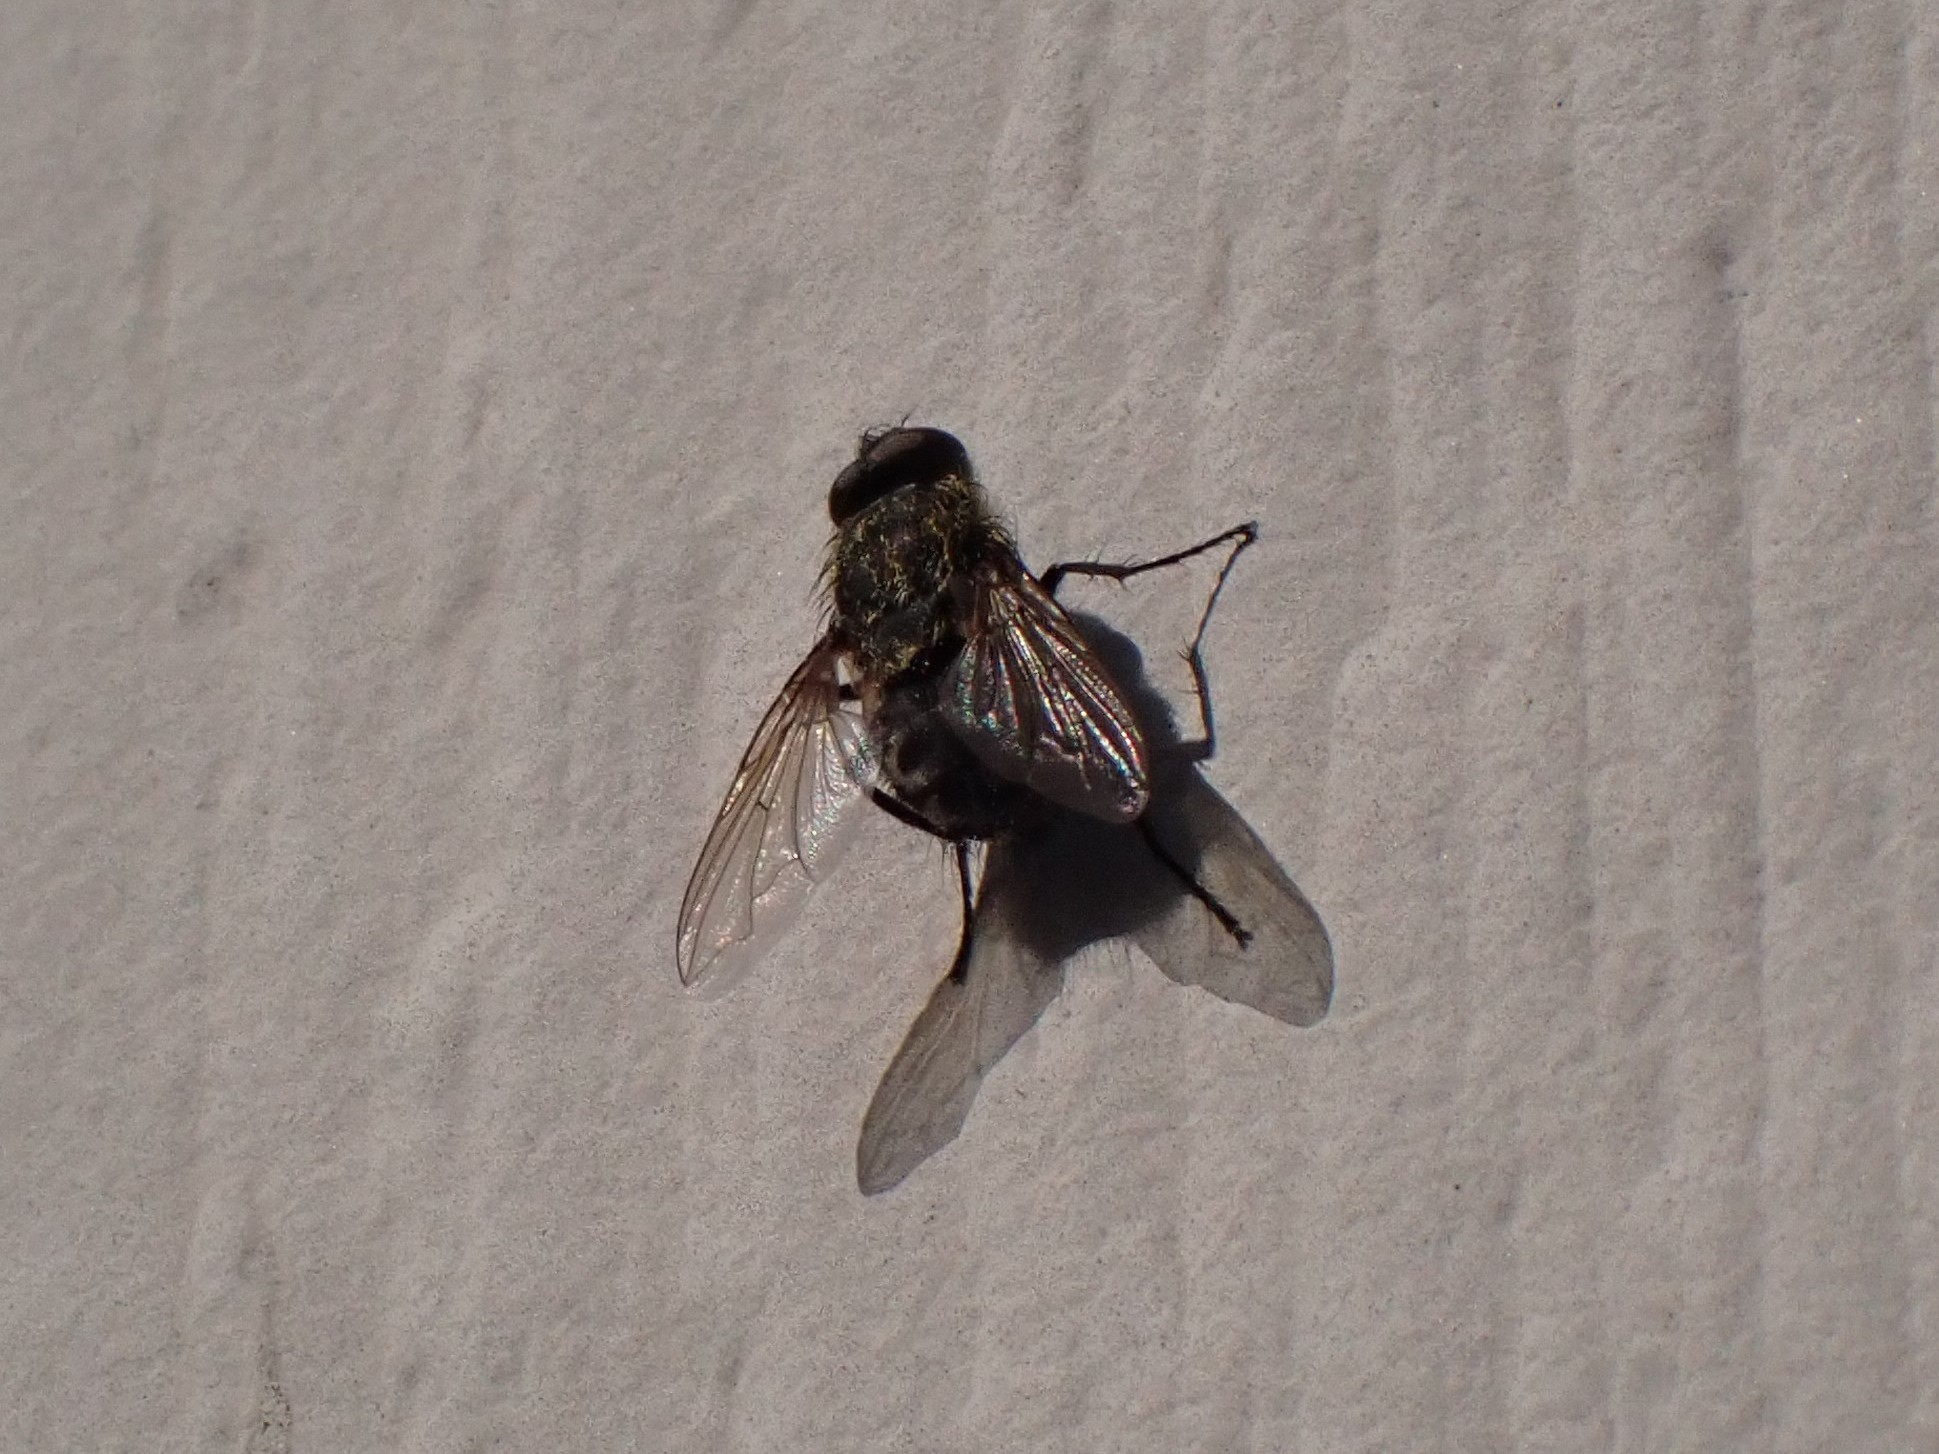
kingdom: Animalia
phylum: Arthropoda
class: Insecta
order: Diptera
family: Polleniidae
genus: Pollenia
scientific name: Pollenia
